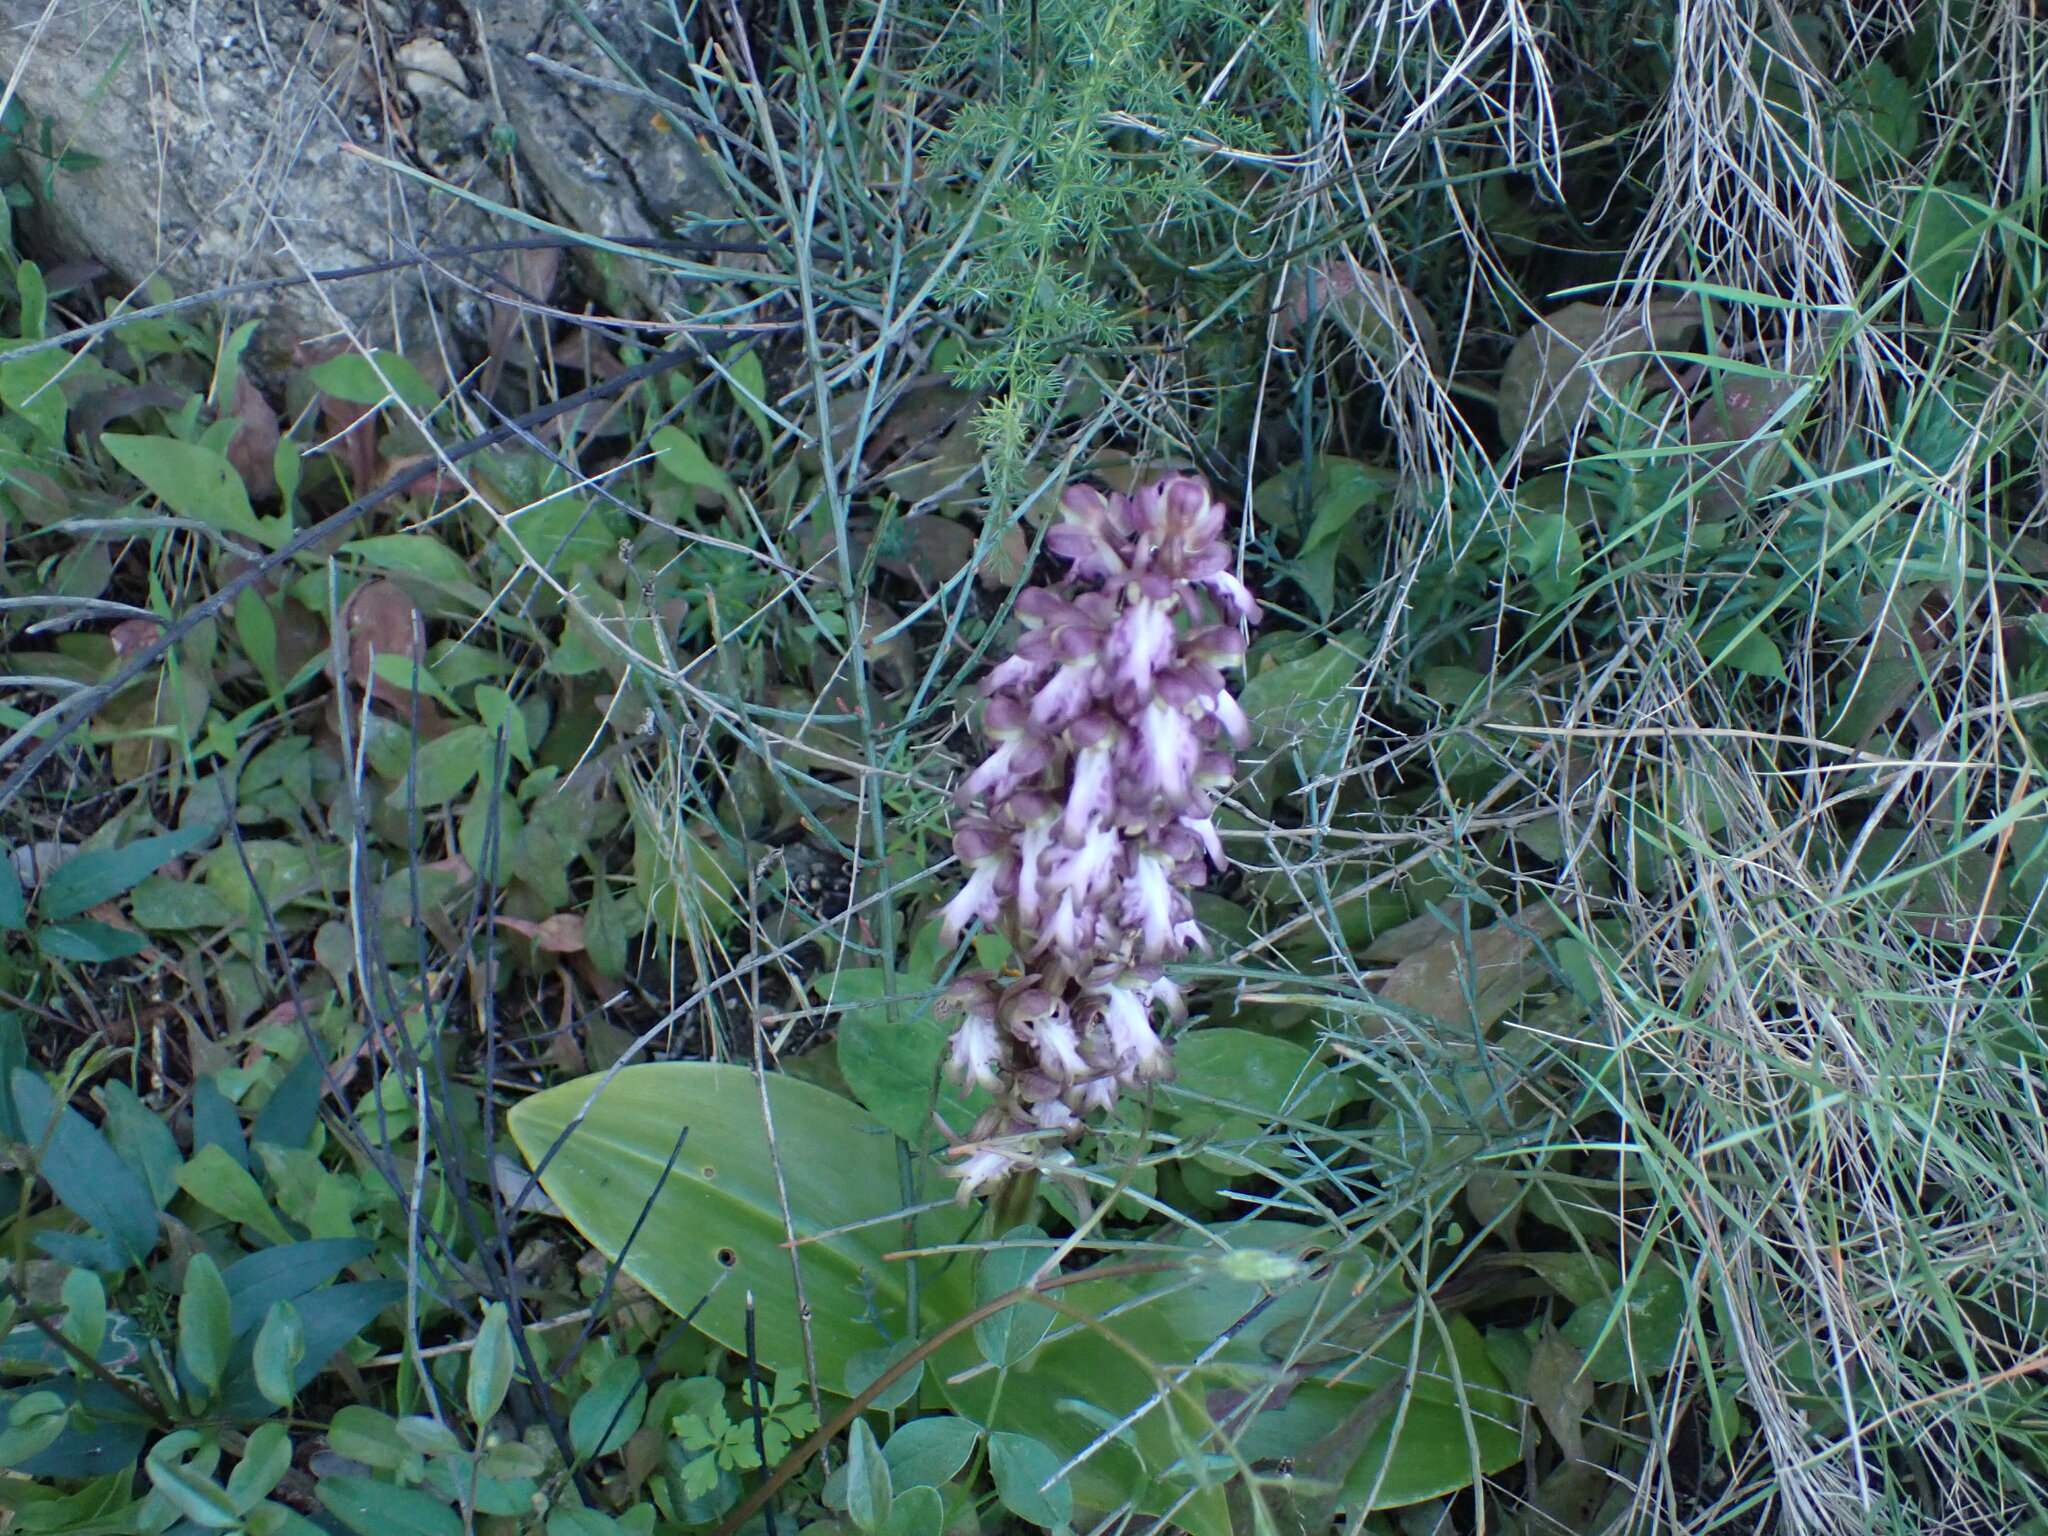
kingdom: Plantae
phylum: Tracheophyta
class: Liliopsida
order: Asparagales
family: Orchidaceae
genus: Himantoglossum
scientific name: Himantoglossum robertianum
